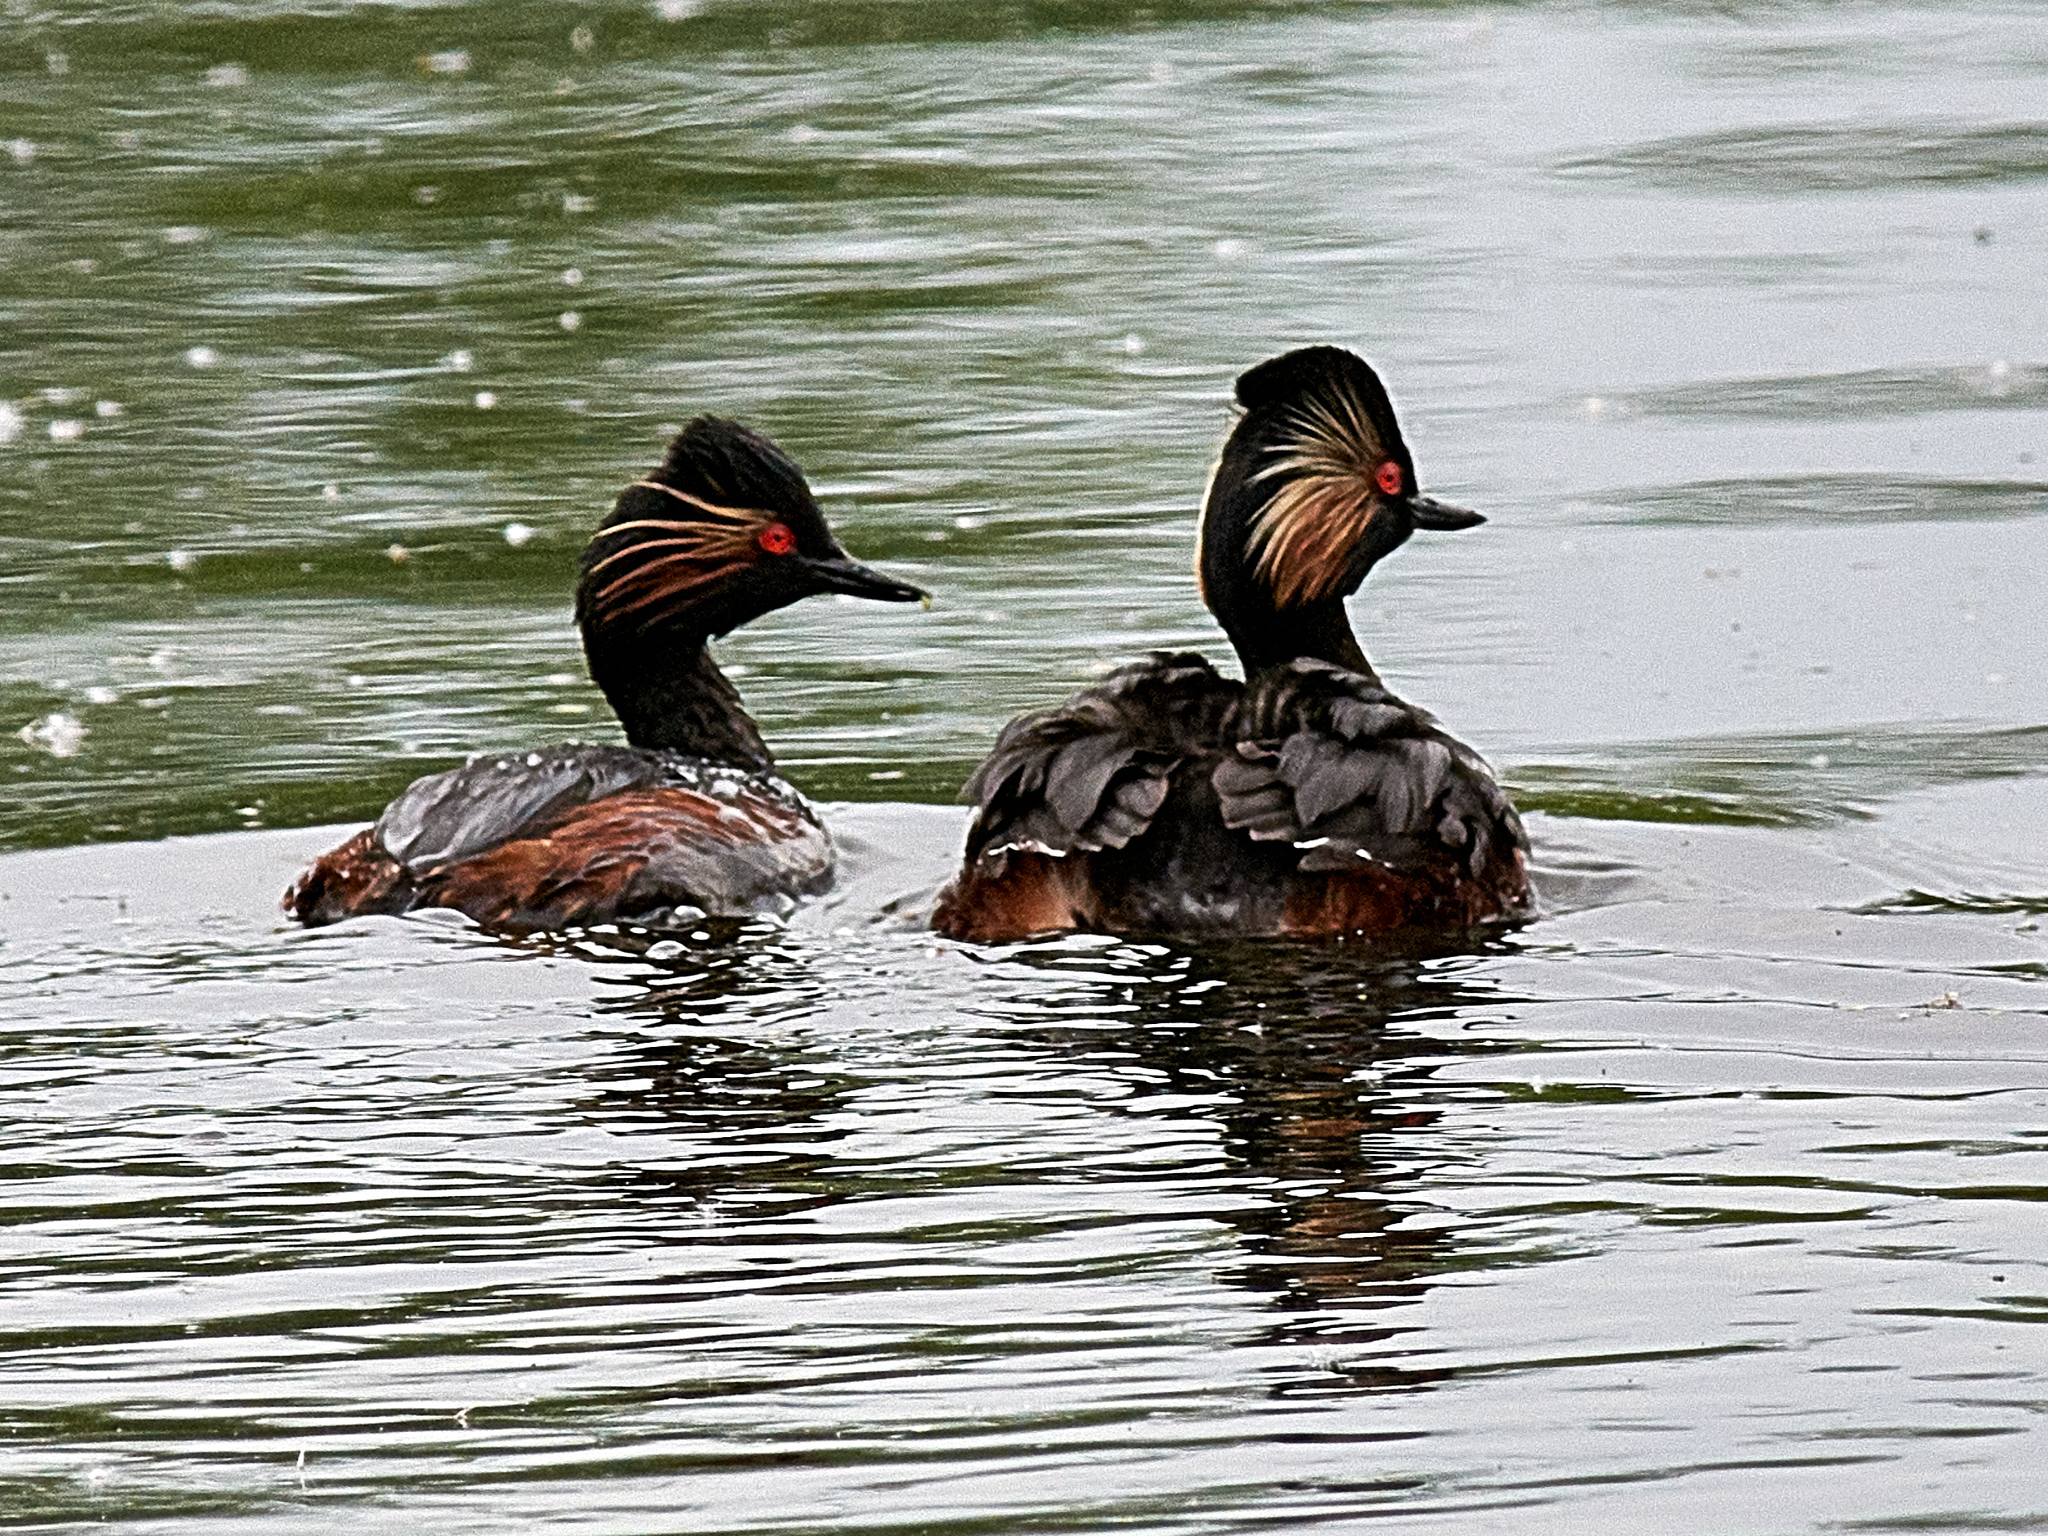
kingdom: Animalia
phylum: Chordata
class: Aves
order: Podicipediformes
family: Podicipedidae
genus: Podiceps
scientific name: Podiceps nigricollis
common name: Black-necked grebe
